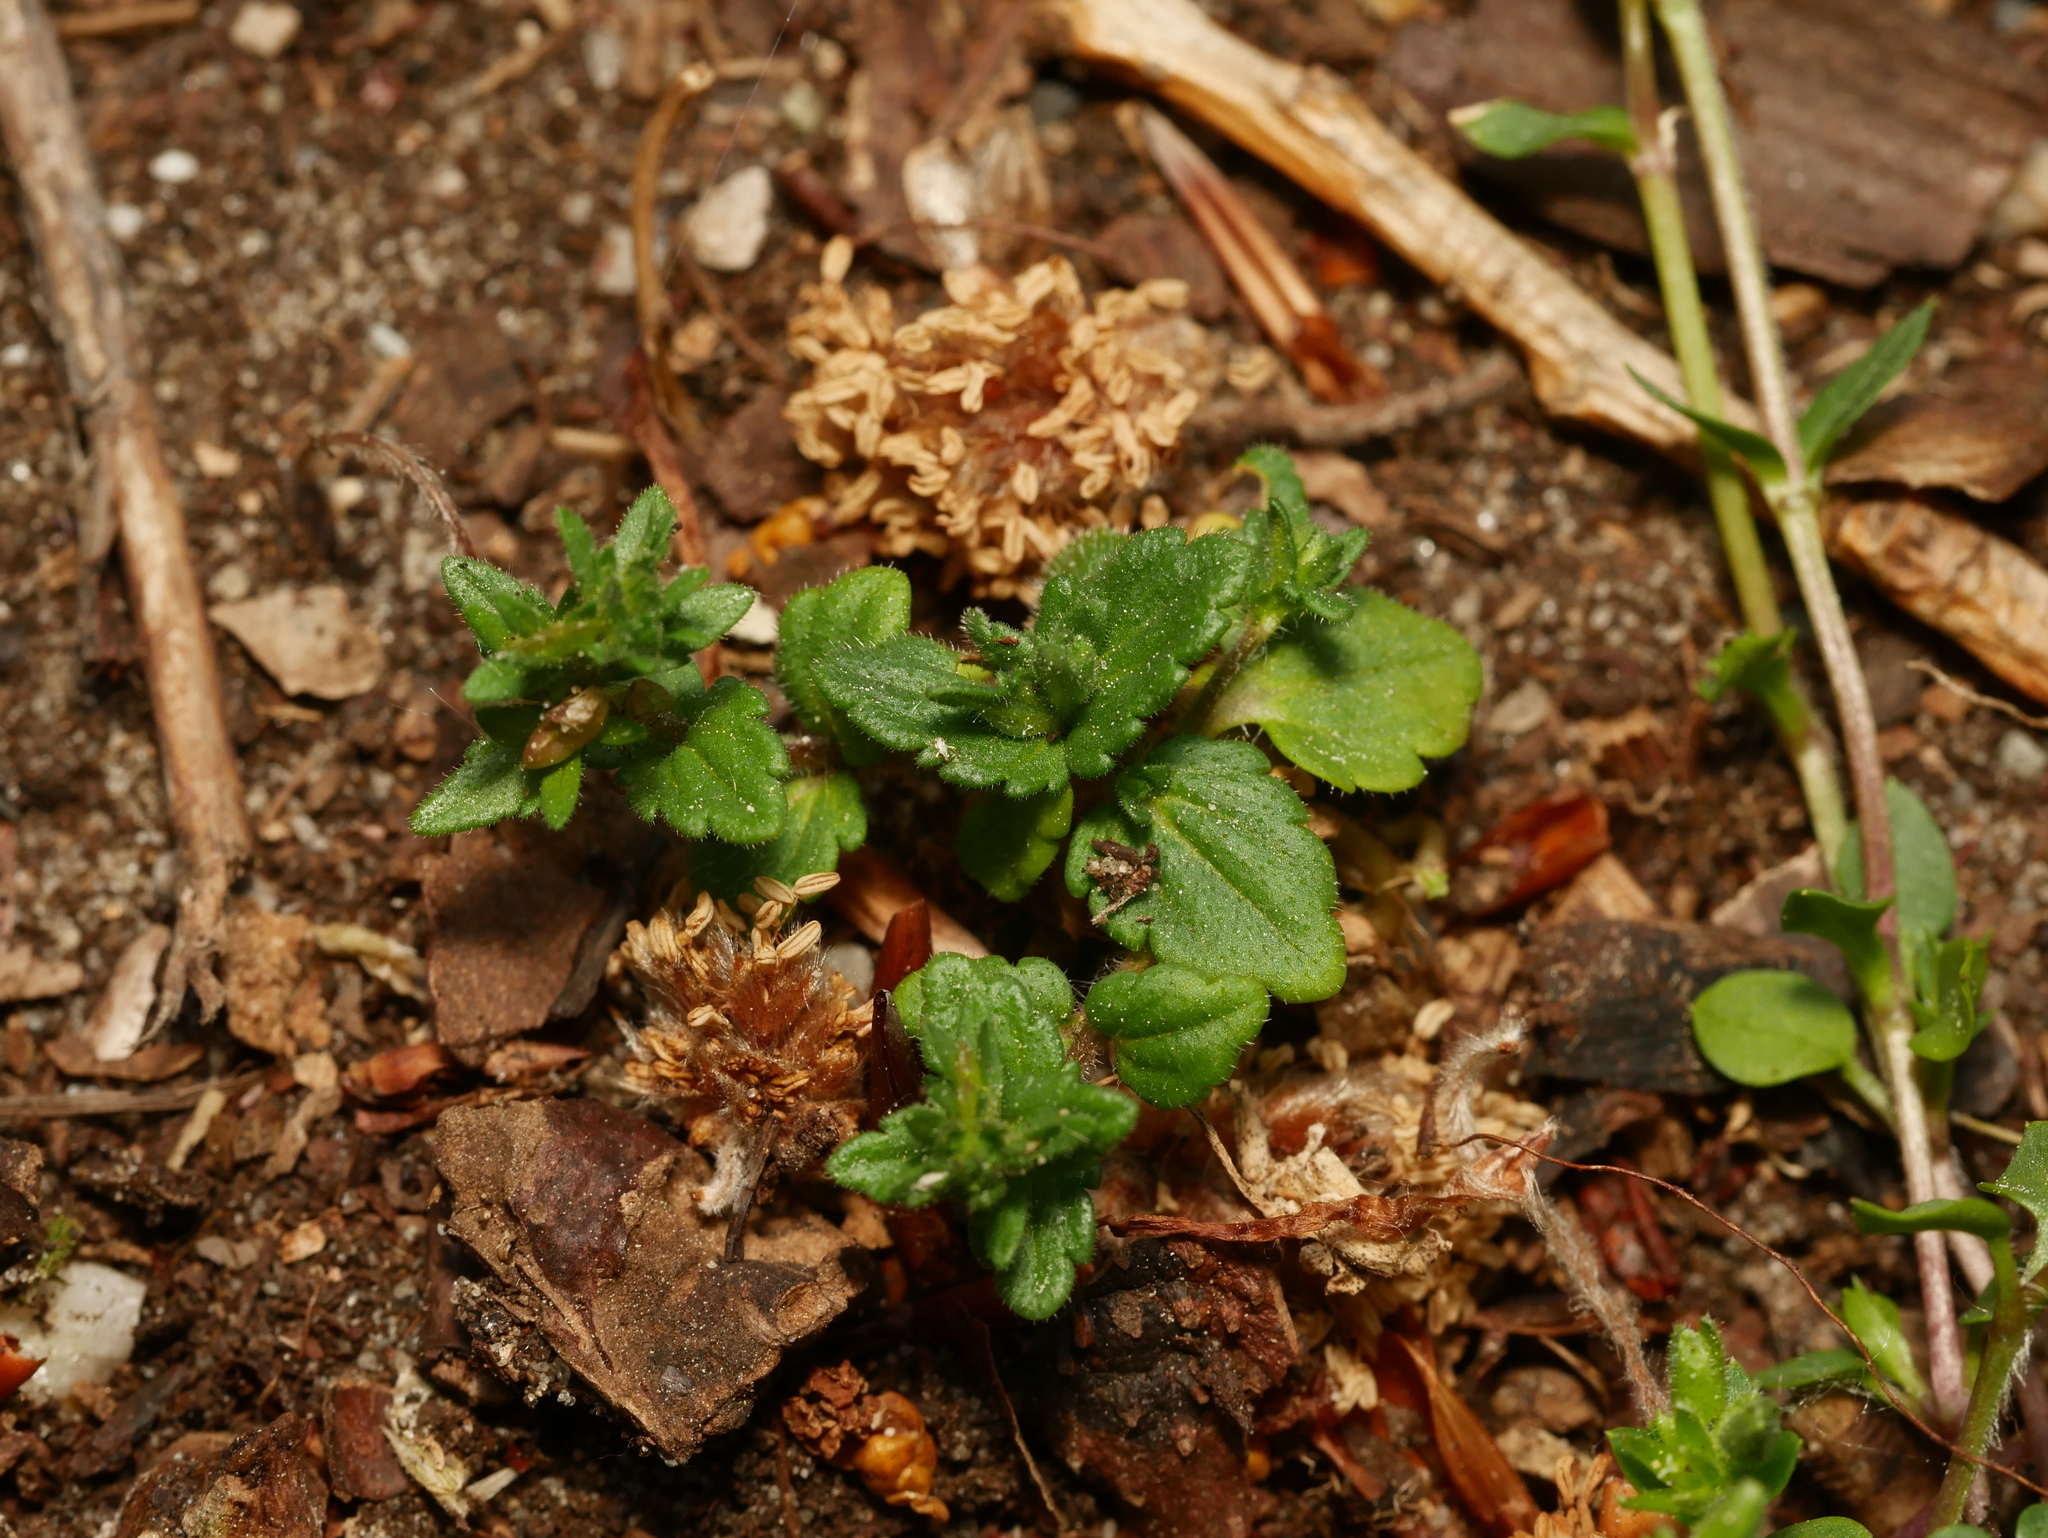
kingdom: Plantae
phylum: Tracheophyta
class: Magnoliopsida
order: Lamiales
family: Plantaginaceae
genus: Veronica
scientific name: Veronica arvensis
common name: Corn speedwell
